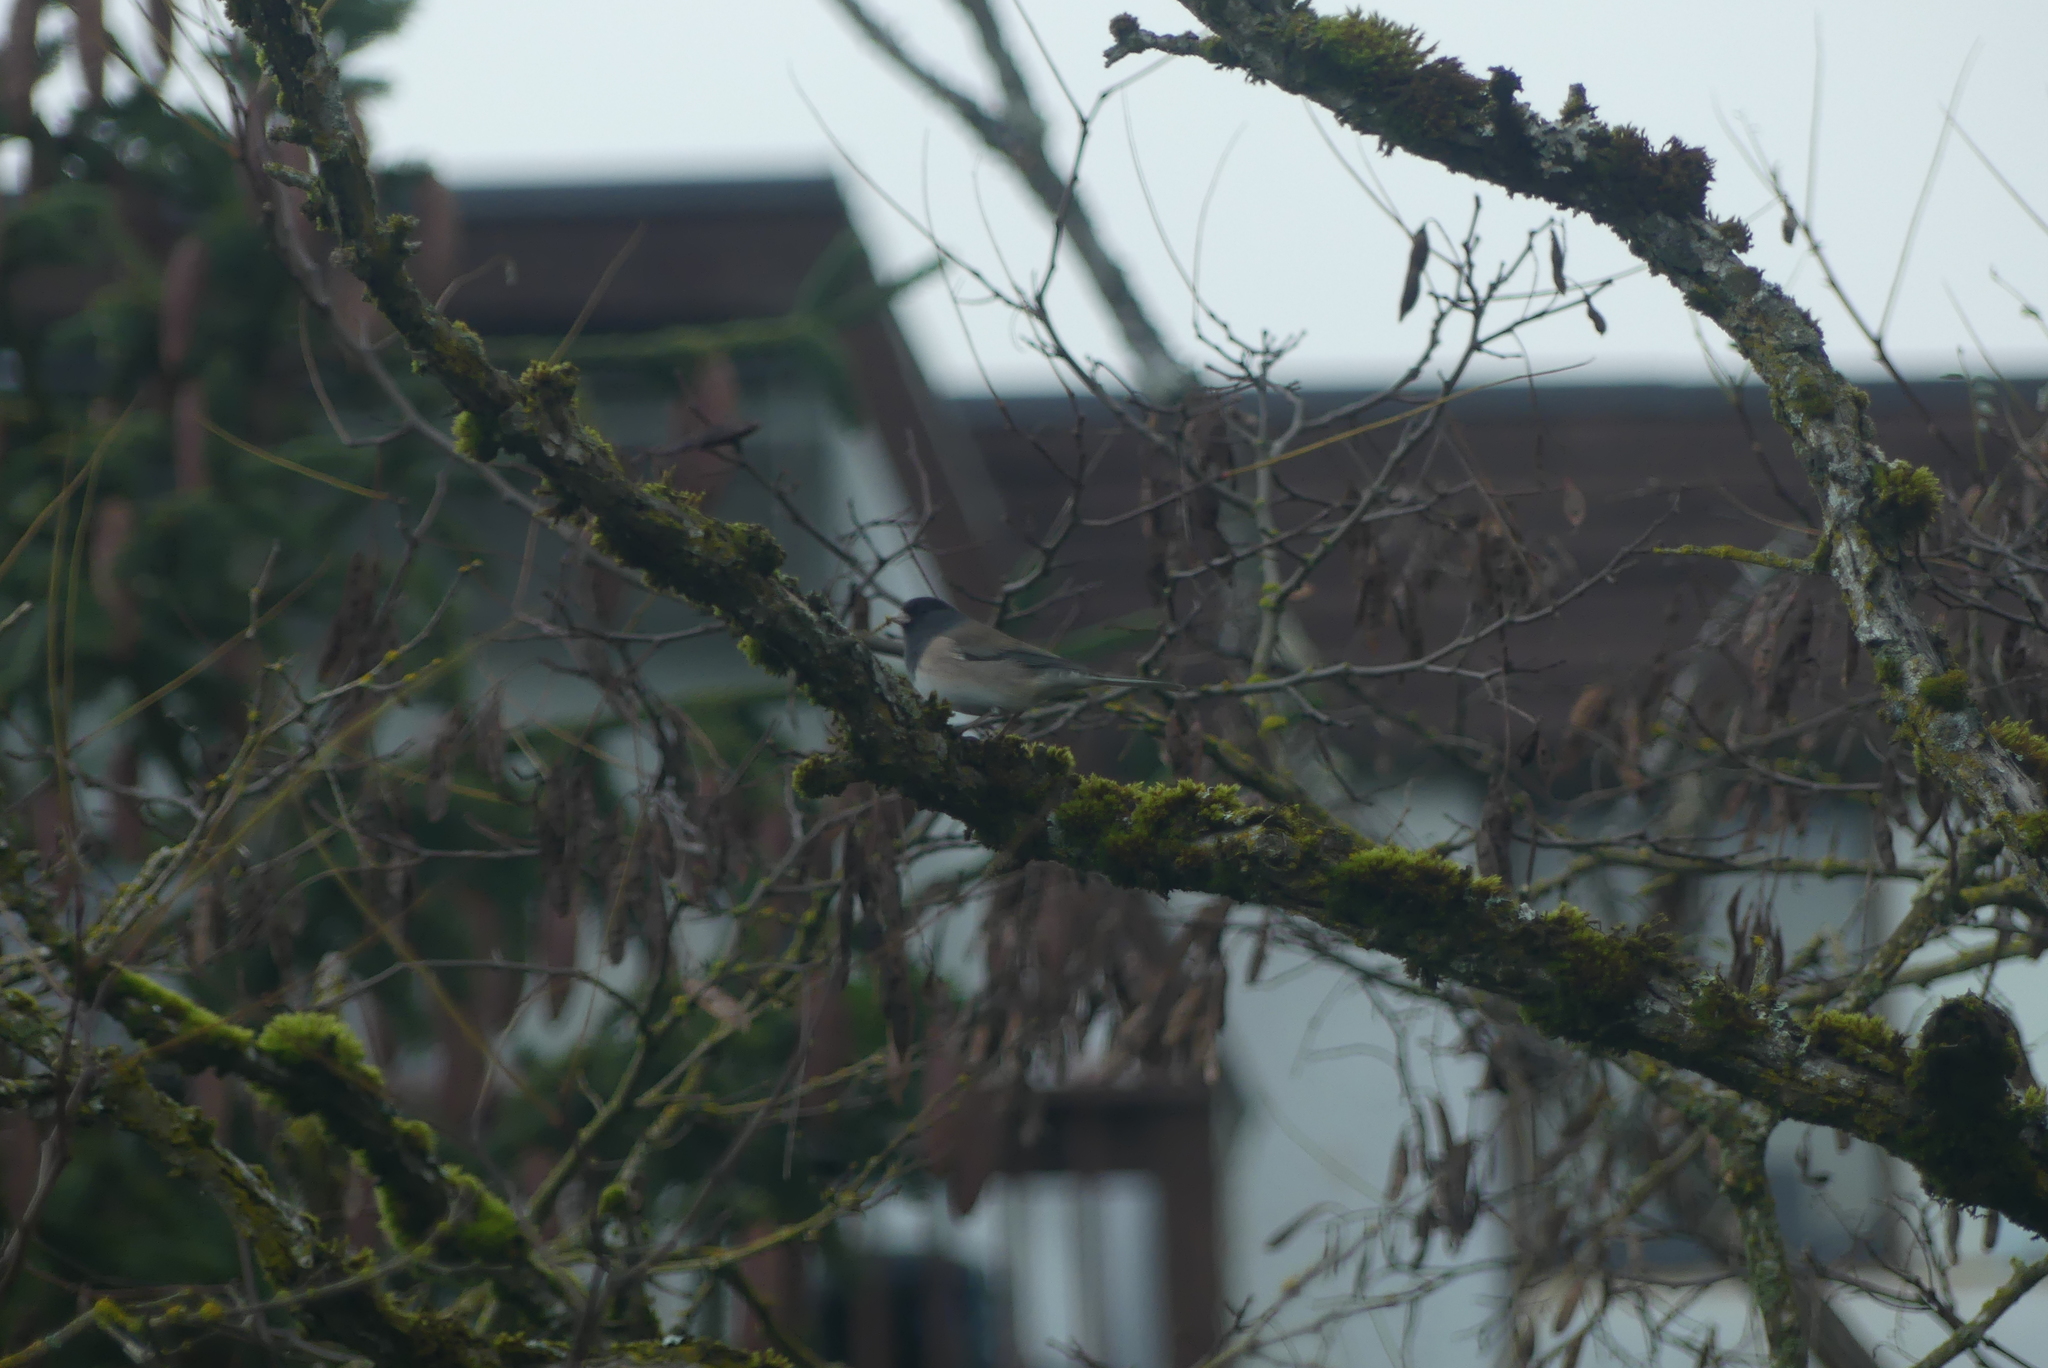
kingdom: Animalia
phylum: Chordata
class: Aves
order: Passeriformes
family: Passerellidae
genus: Junco
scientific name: Junco hyemalis
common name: Dark-eyed junco
